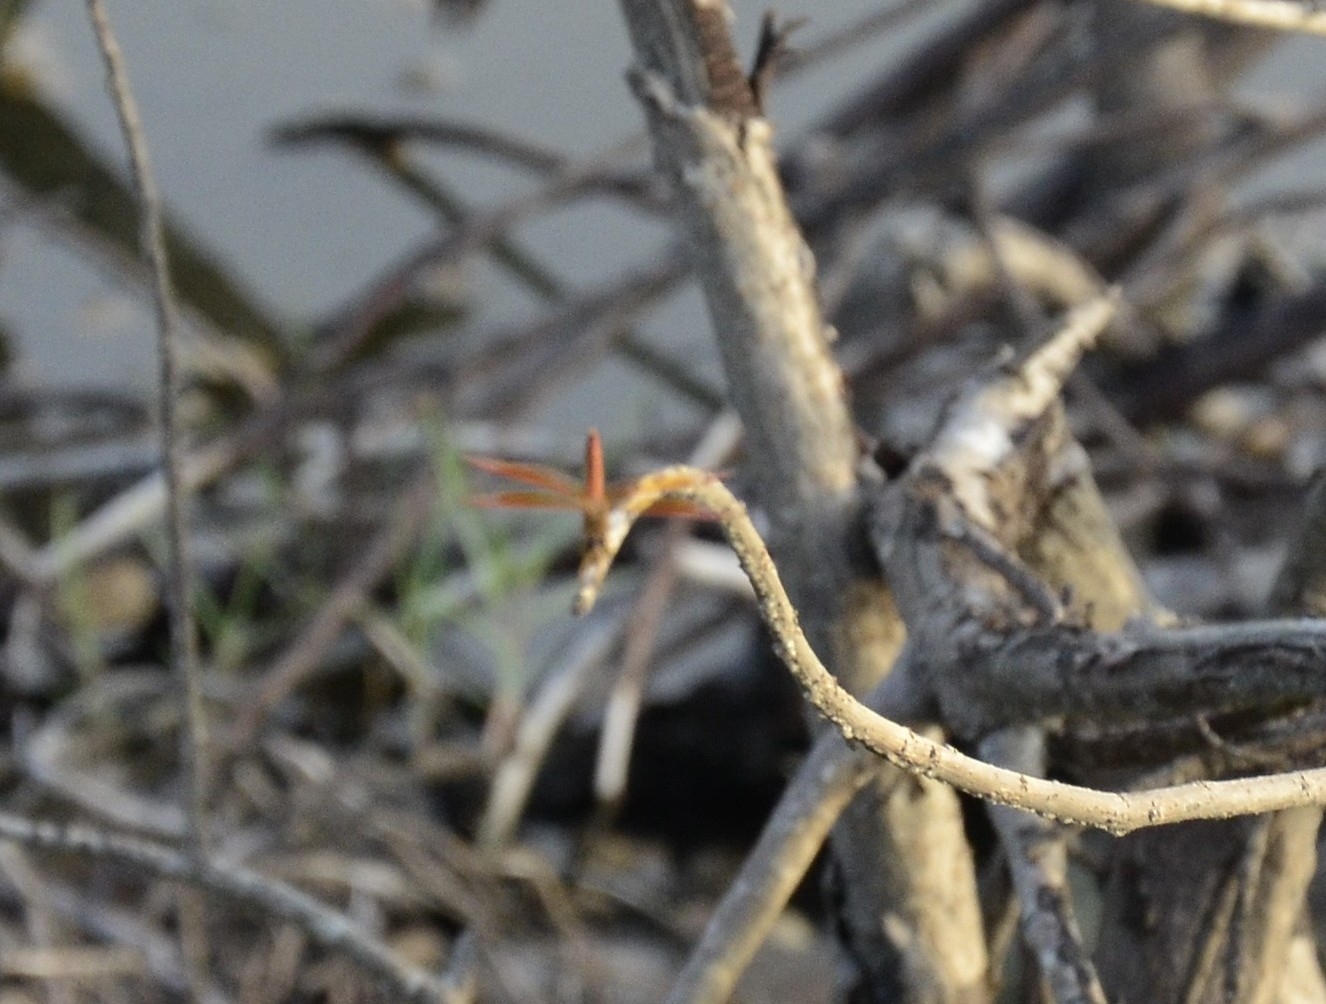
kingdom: Animalia
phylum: Arthropoda
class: Insecta
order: Odonata
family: Libellulidae
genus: Brachythemis
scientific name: Brachythemis contaminata
